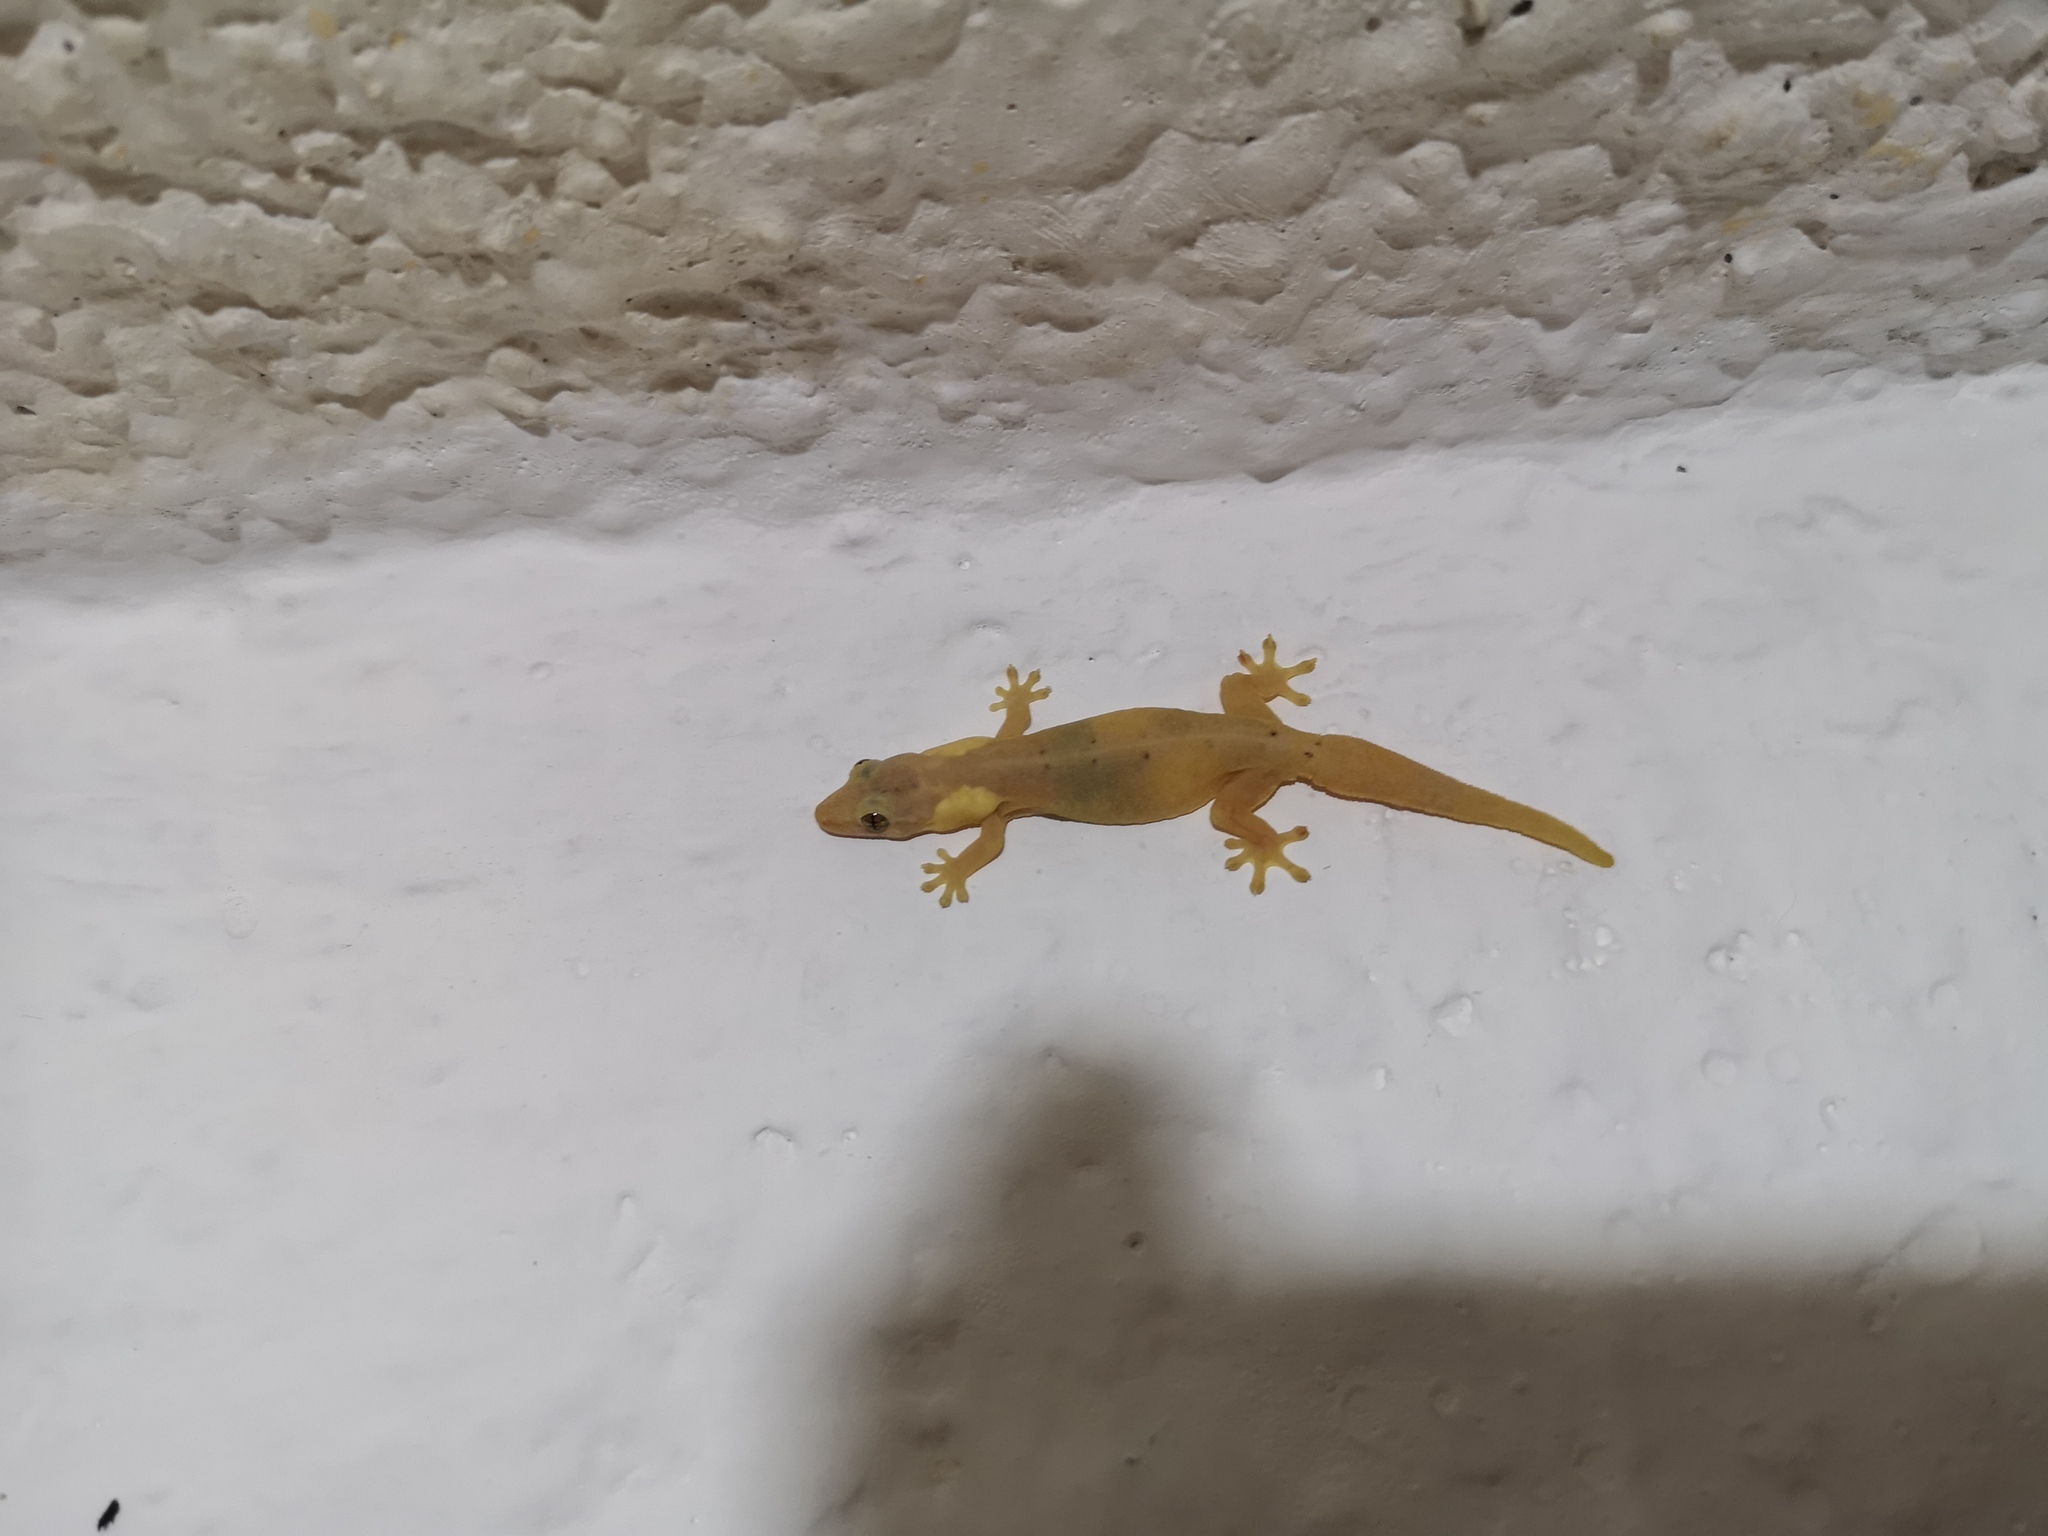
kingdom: Animalia
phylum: Chordata
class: Squamata
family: Gekkonidae
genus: Lepidodactylus
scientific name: Lepidodactylus lugubris
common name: Mourning gecko
